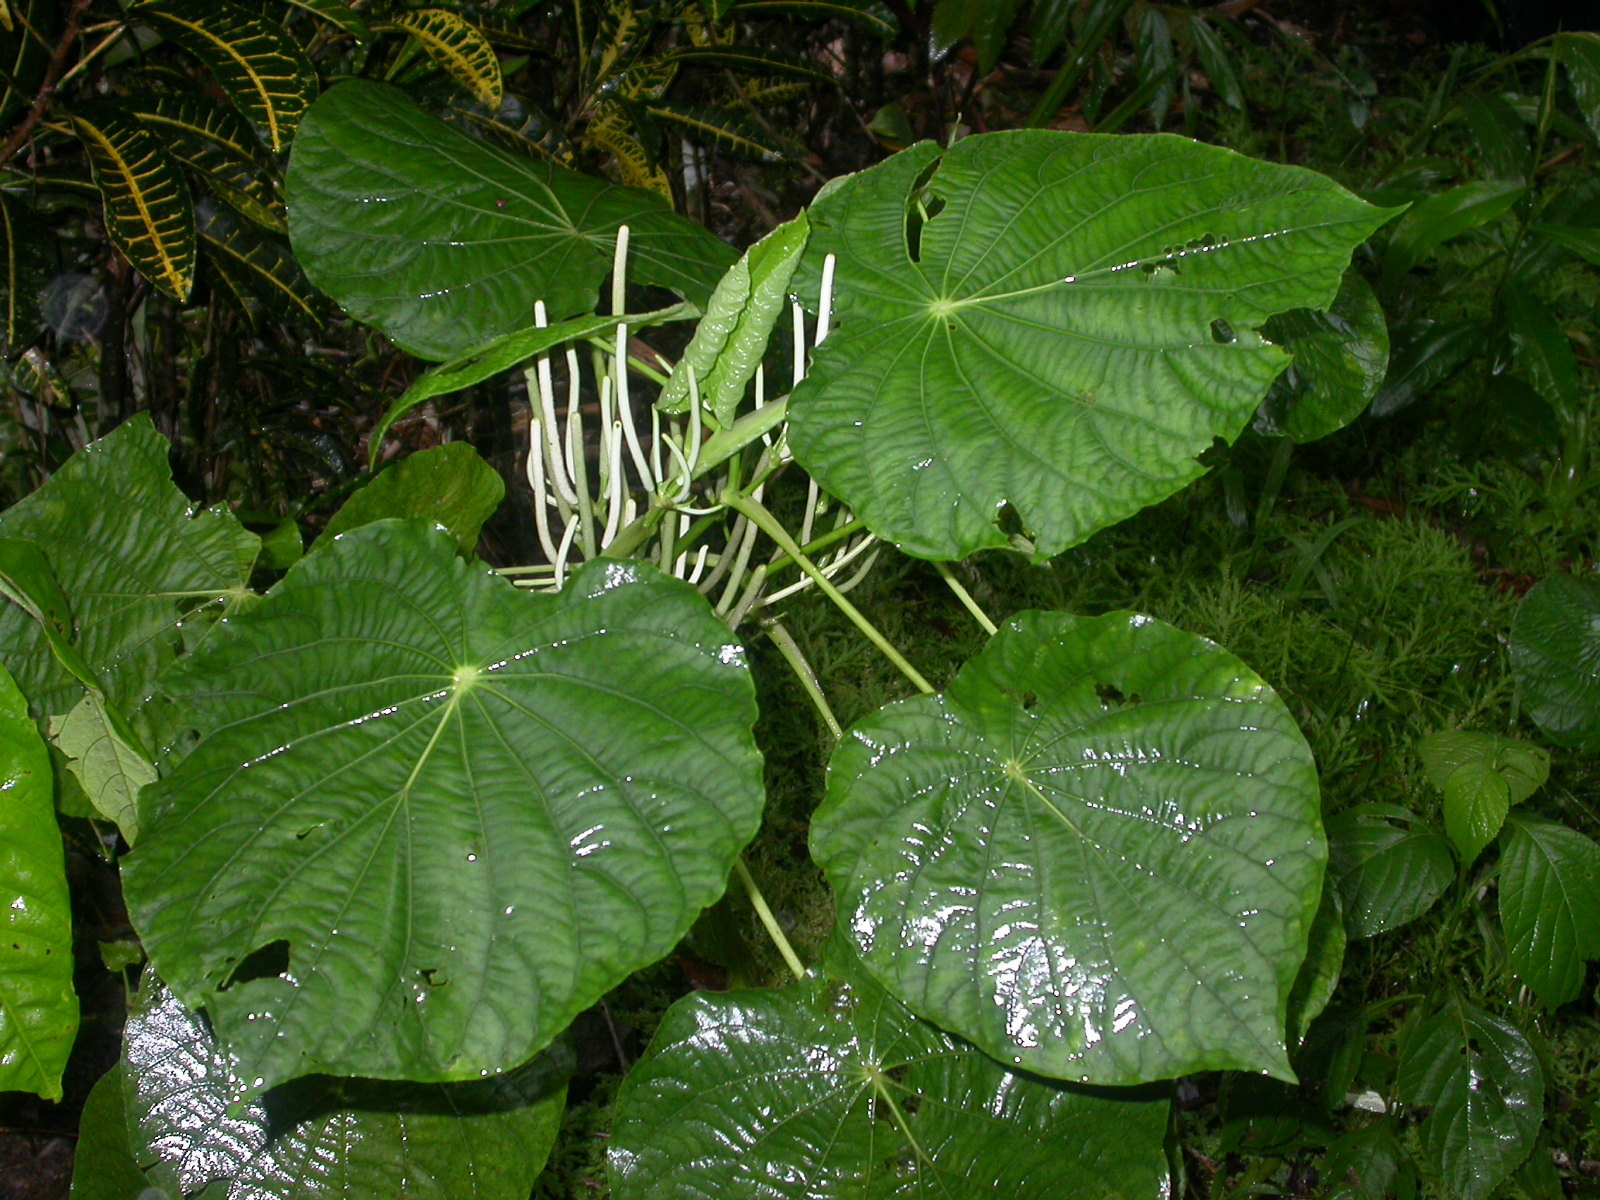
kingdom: Plantae
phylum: Tracheophyta
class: Magnoliopsida
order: Piperales
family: Piperaceae
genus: Piper
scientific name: Piper peltatum
